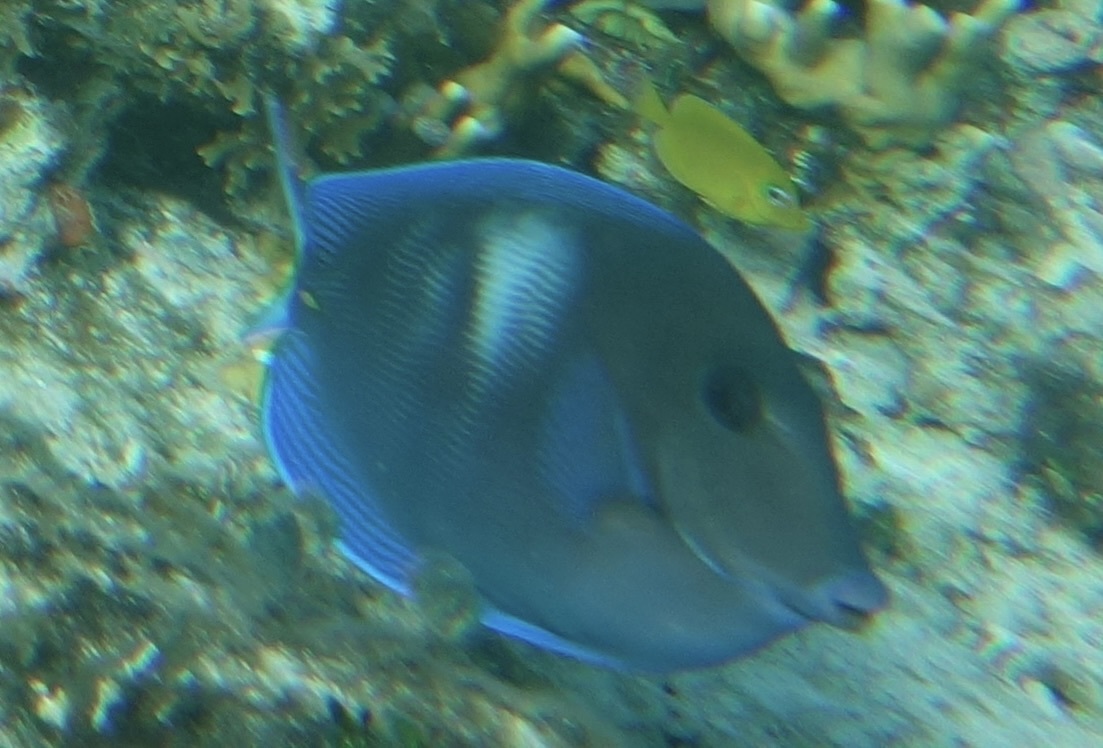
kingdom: Animalia
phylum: Chordata
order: Perciformes
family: Acanthuridae
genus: Acanthurus
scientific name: Acanthurus coeruleus
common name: Blue tang
